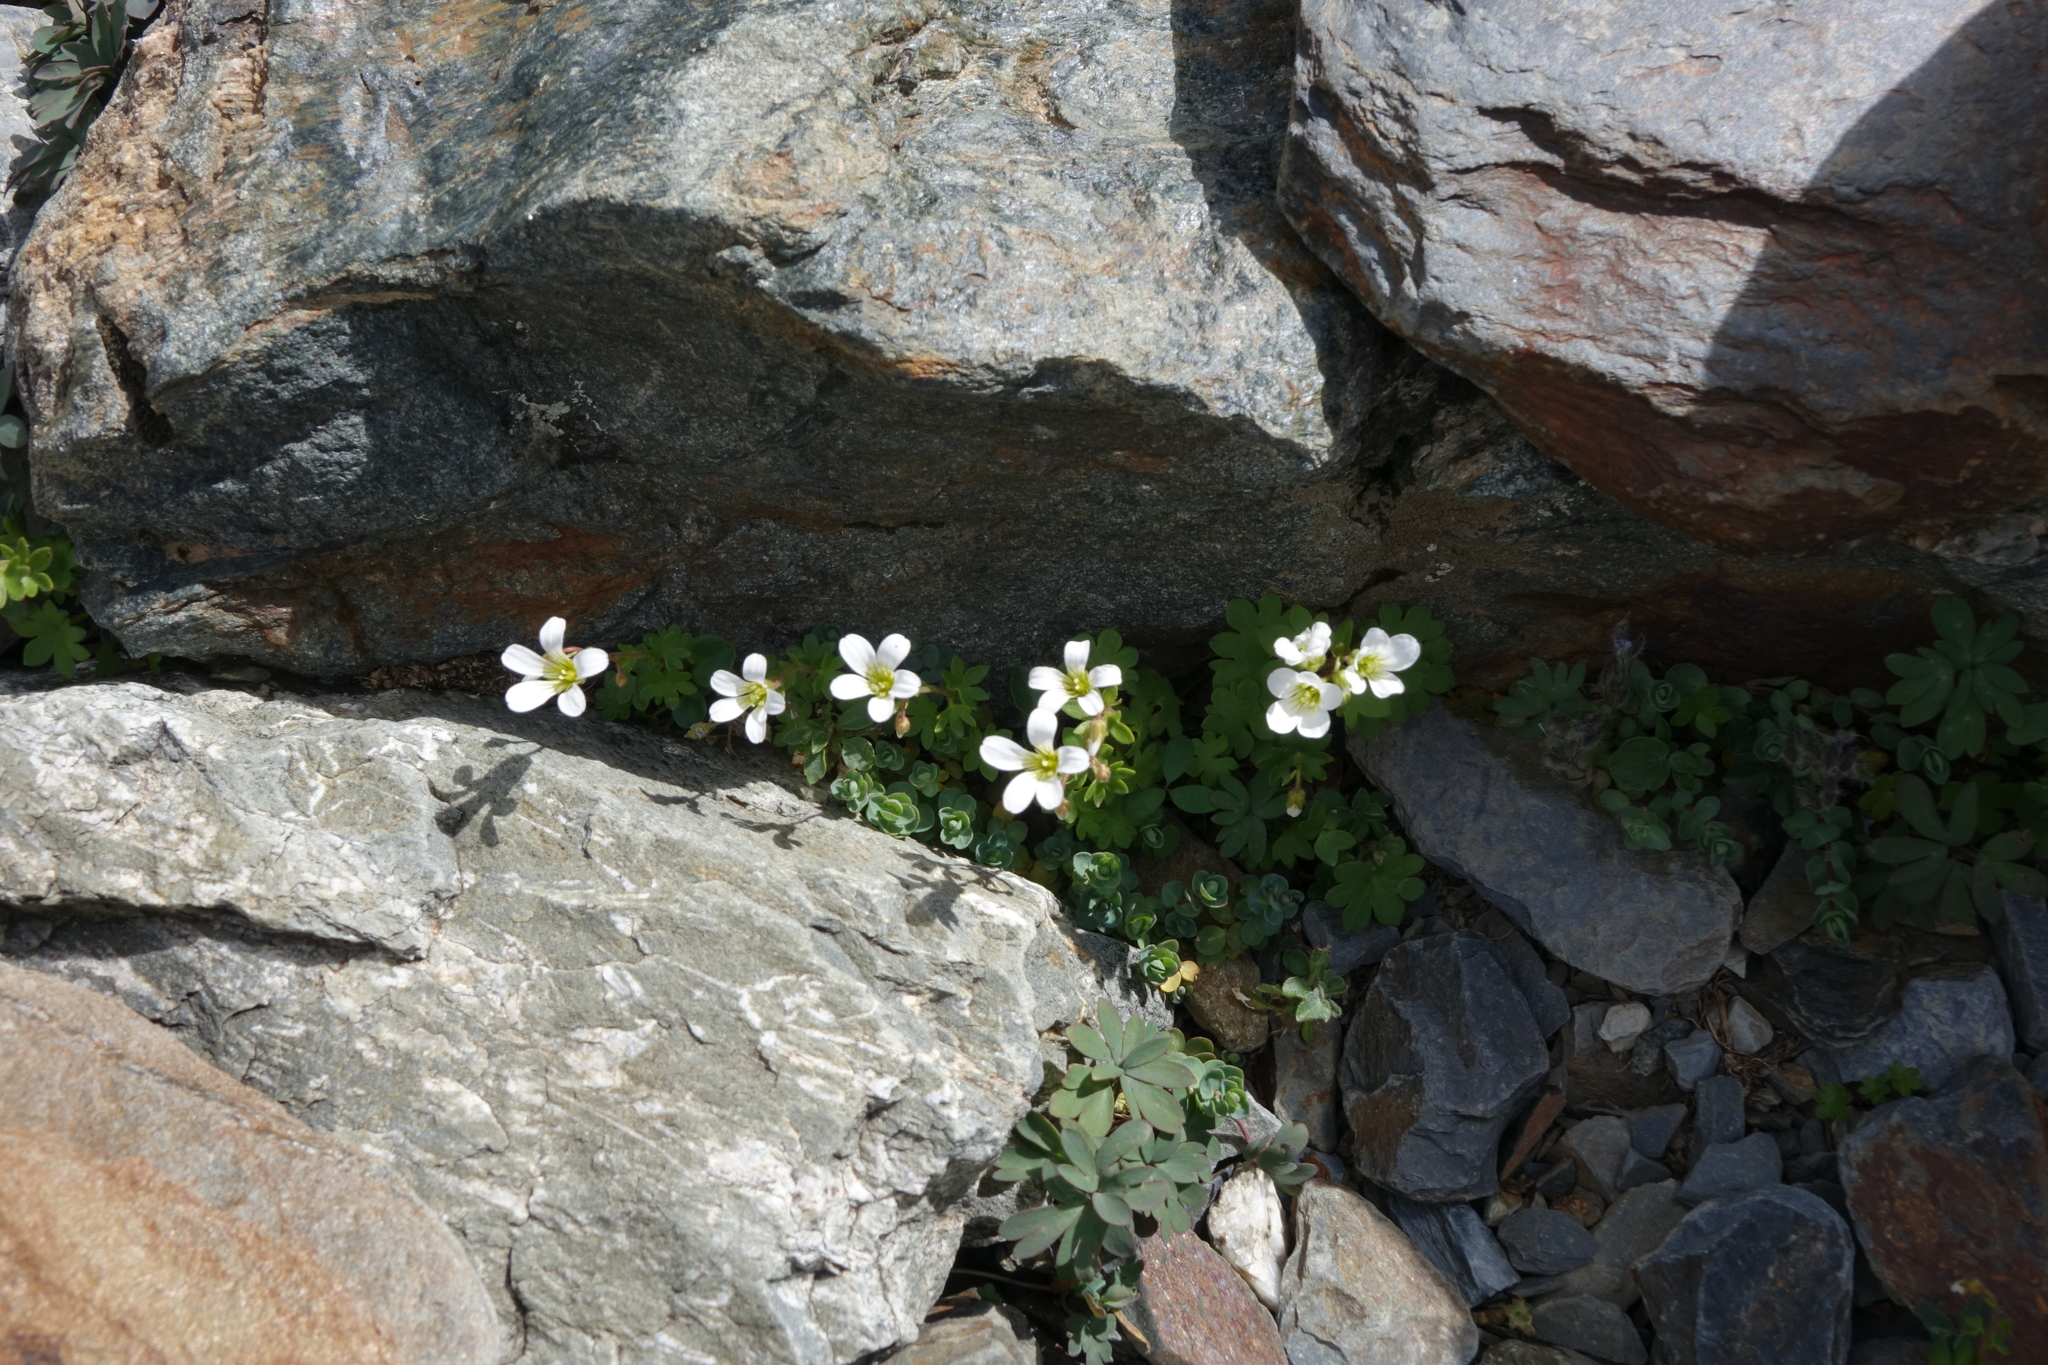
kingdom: Plantae
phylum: Tracheophyta
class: Magnoliopsida
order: Saxifragales
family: Saxifragaceae
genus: Saxifraga
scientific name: Saxifraga sibirica
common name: Siberian saxifrage
